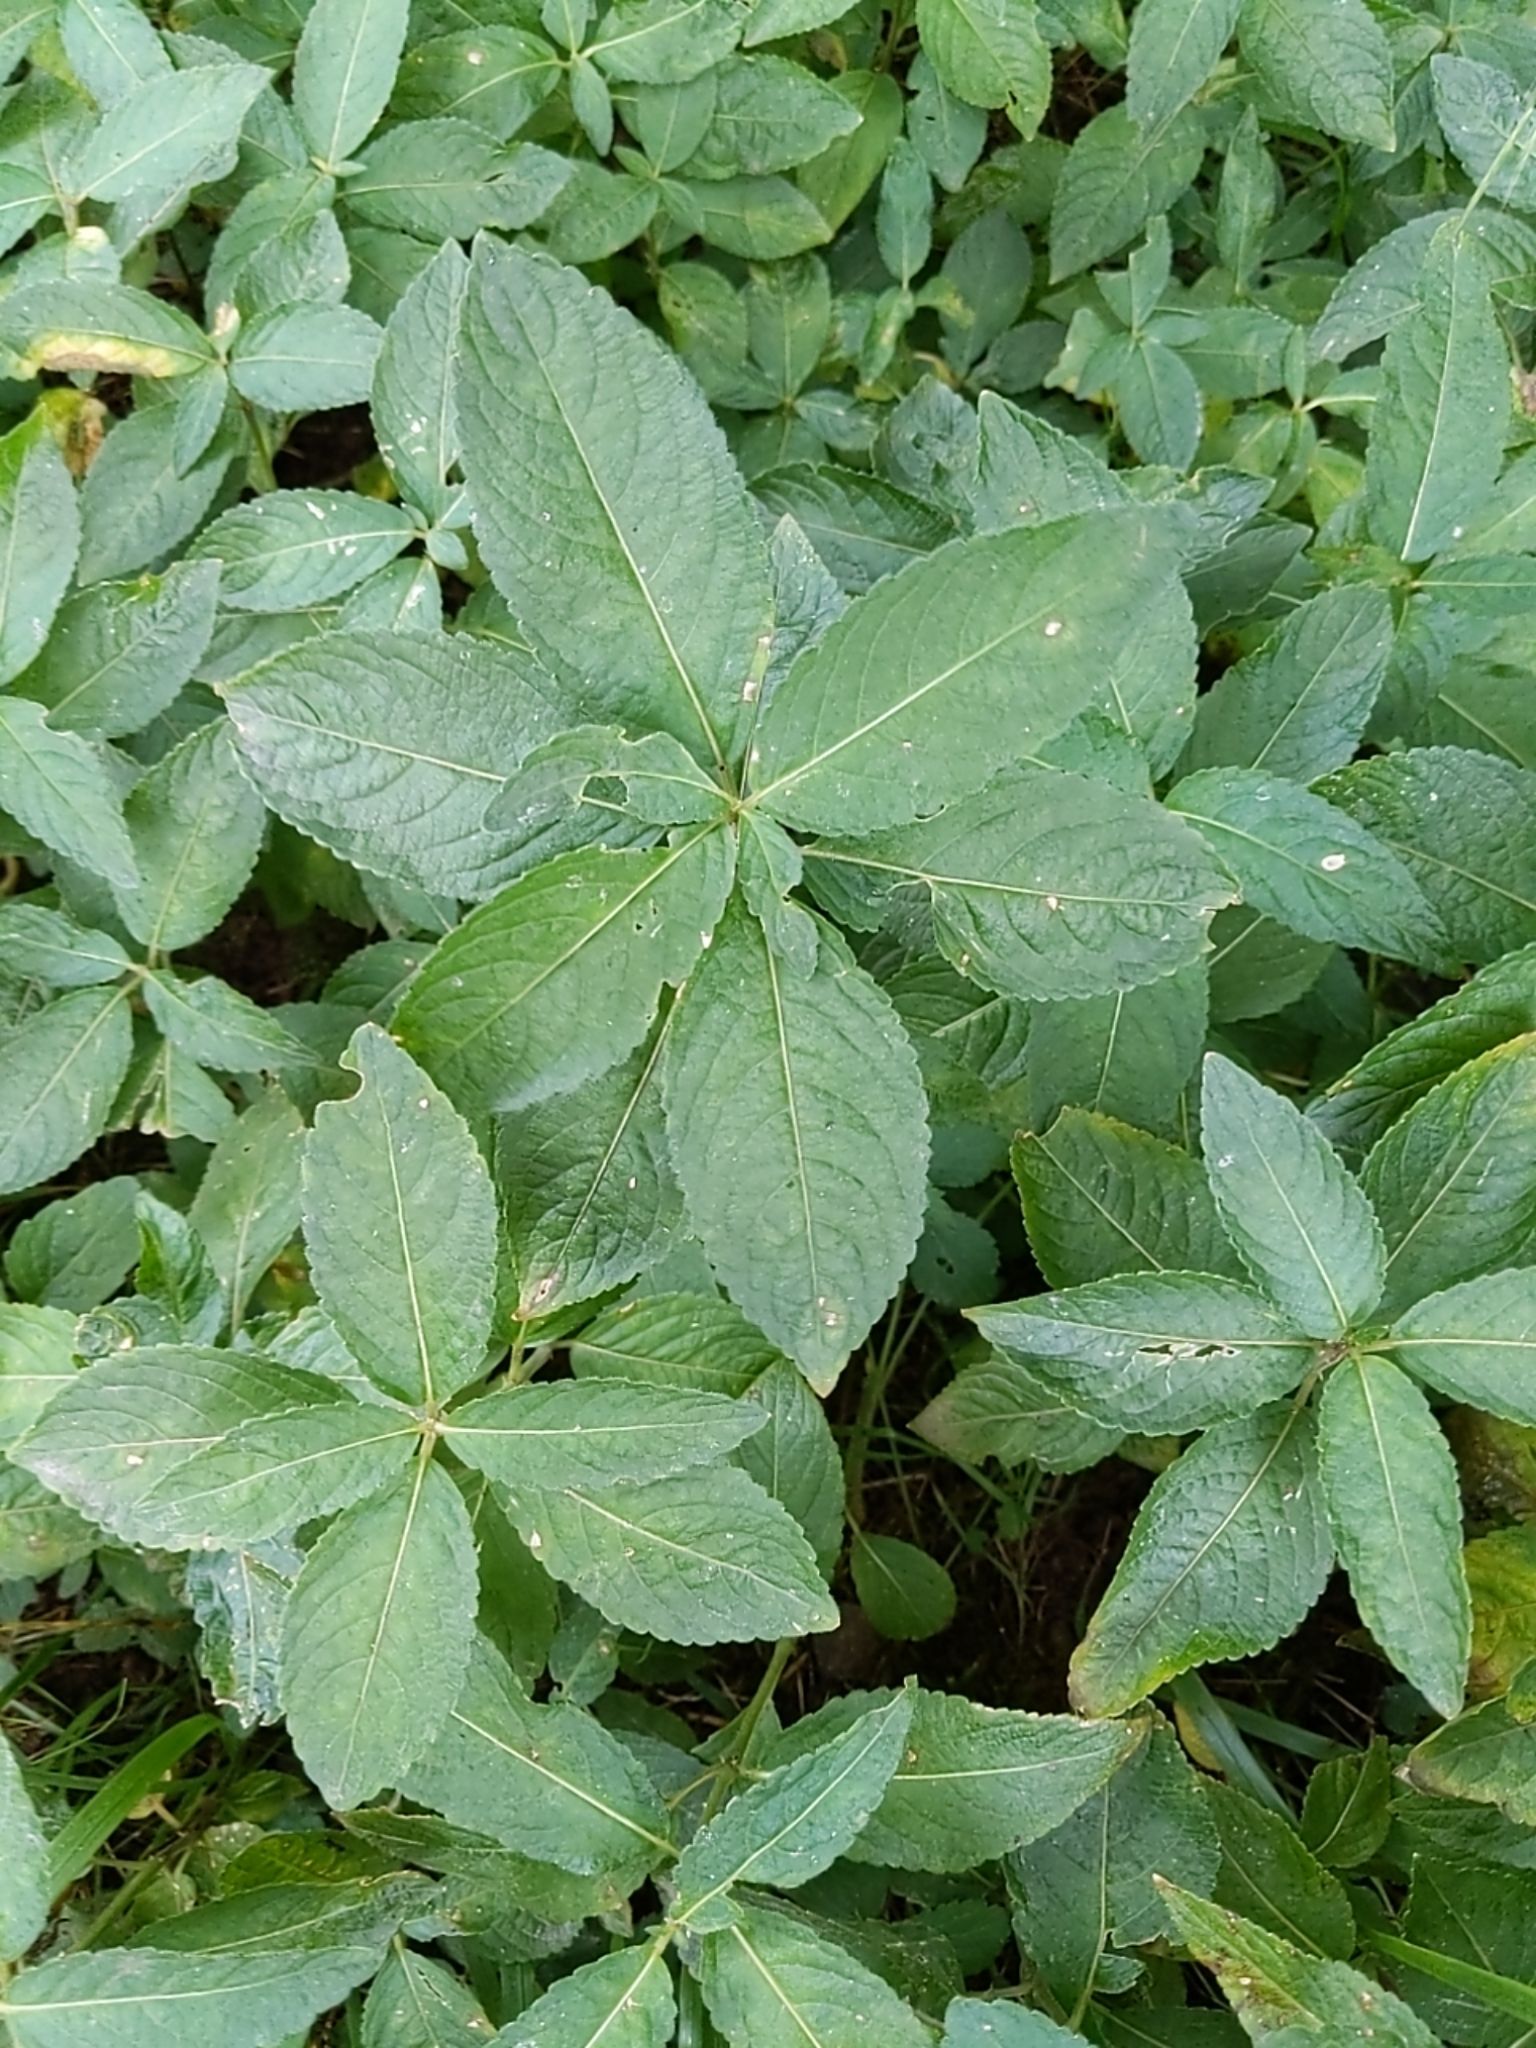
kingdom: Plantae
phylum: Tracheophyta
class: Magnoliopsida
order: Malpighiales
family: Euphorbiaceae
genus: Mercurialis
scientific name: Mercurialis perennis
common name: Dog mercury
